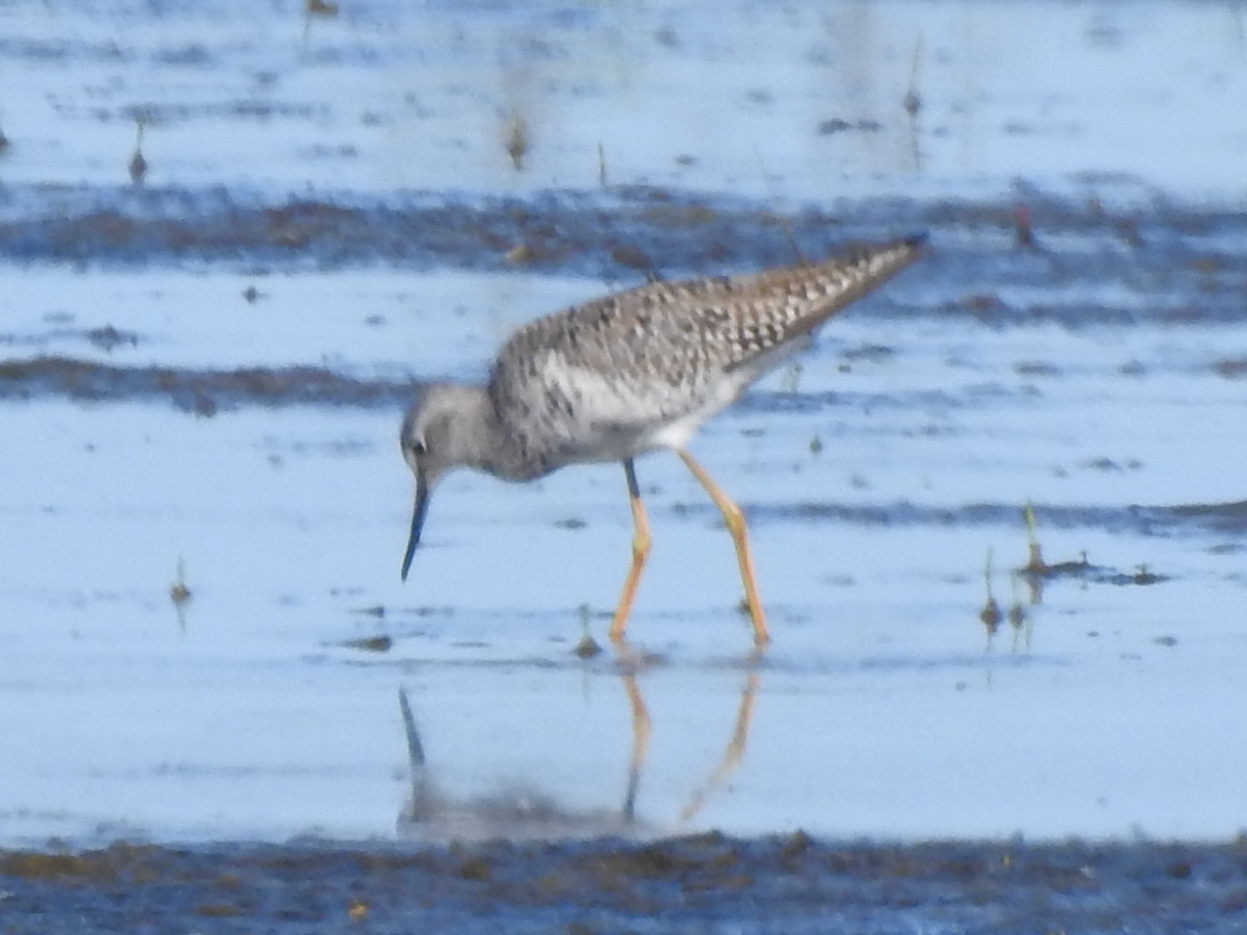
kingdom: Animalia
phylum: Chordata
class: Aves
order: Charadriiformes
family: Scolopacidae
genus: Tringa
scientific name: Tringa flavipes
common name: Lesser yellowlegs
